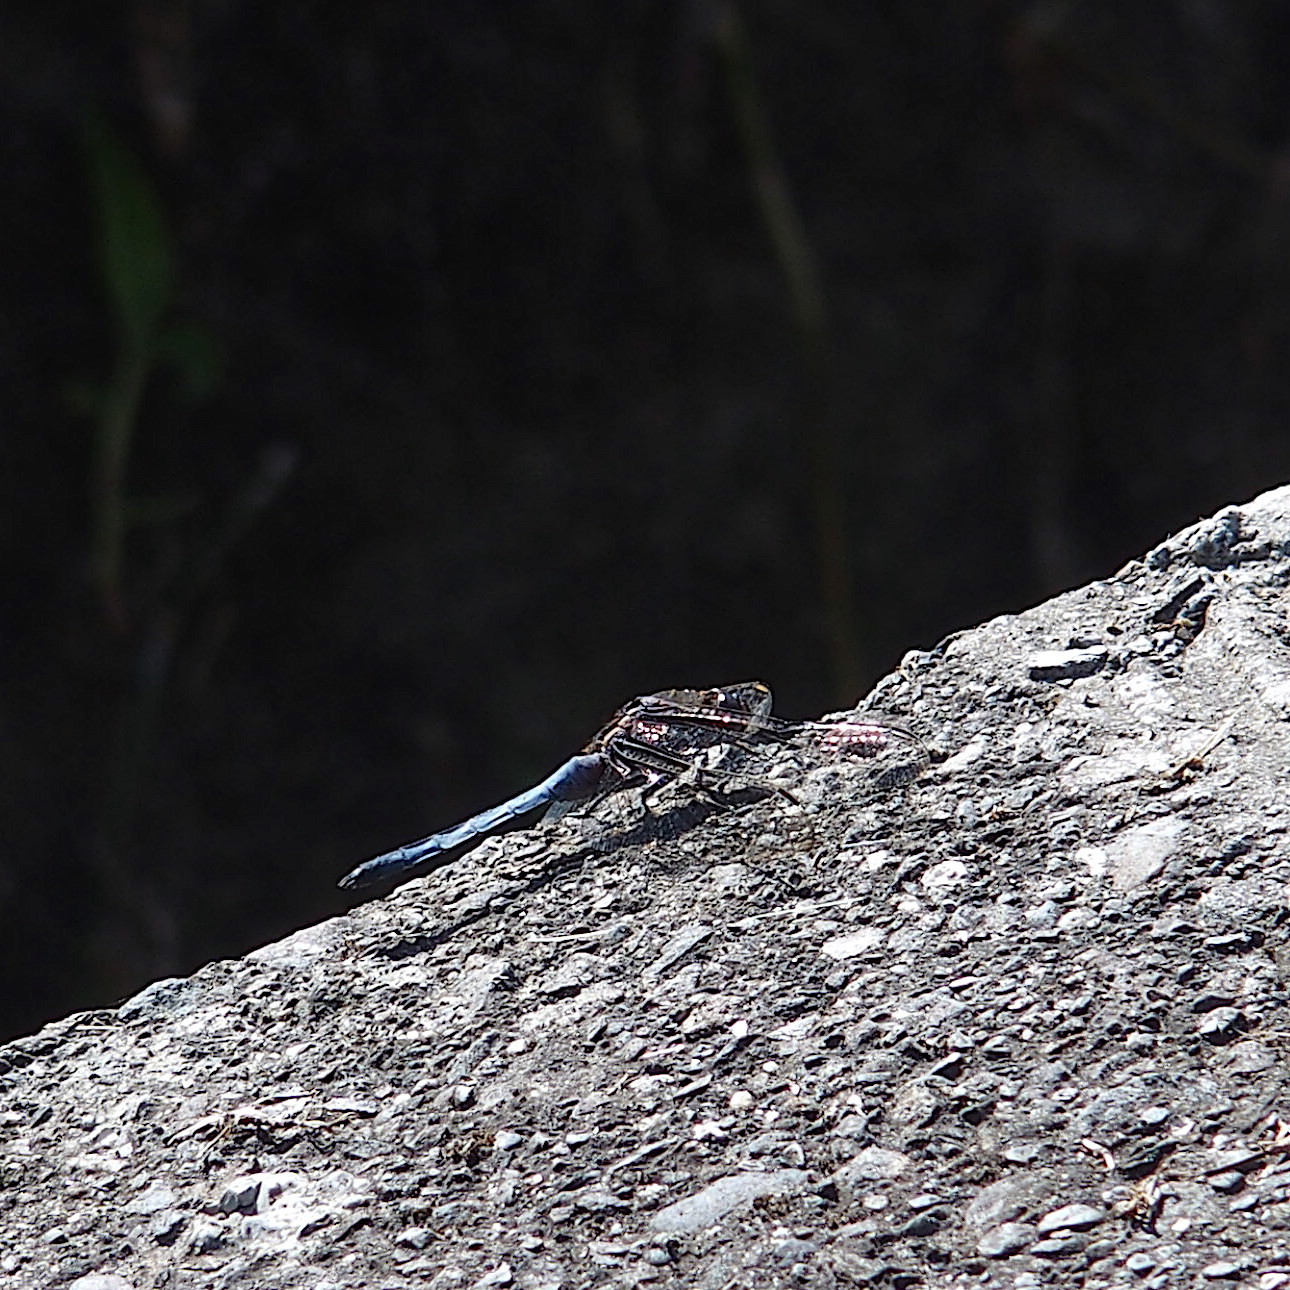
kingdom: Animalia
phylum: Arthropoda
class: Insecta
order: Odonata
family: Libellulidae
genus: Orthetrum
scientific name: Orthetrum glaucum
